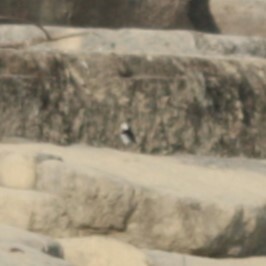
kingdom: Animalia
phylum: Chordata
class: Aves
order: Passeriformes
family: Motacillidae
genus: Motacilla
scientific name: Motacilla alba
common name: White wagtail
